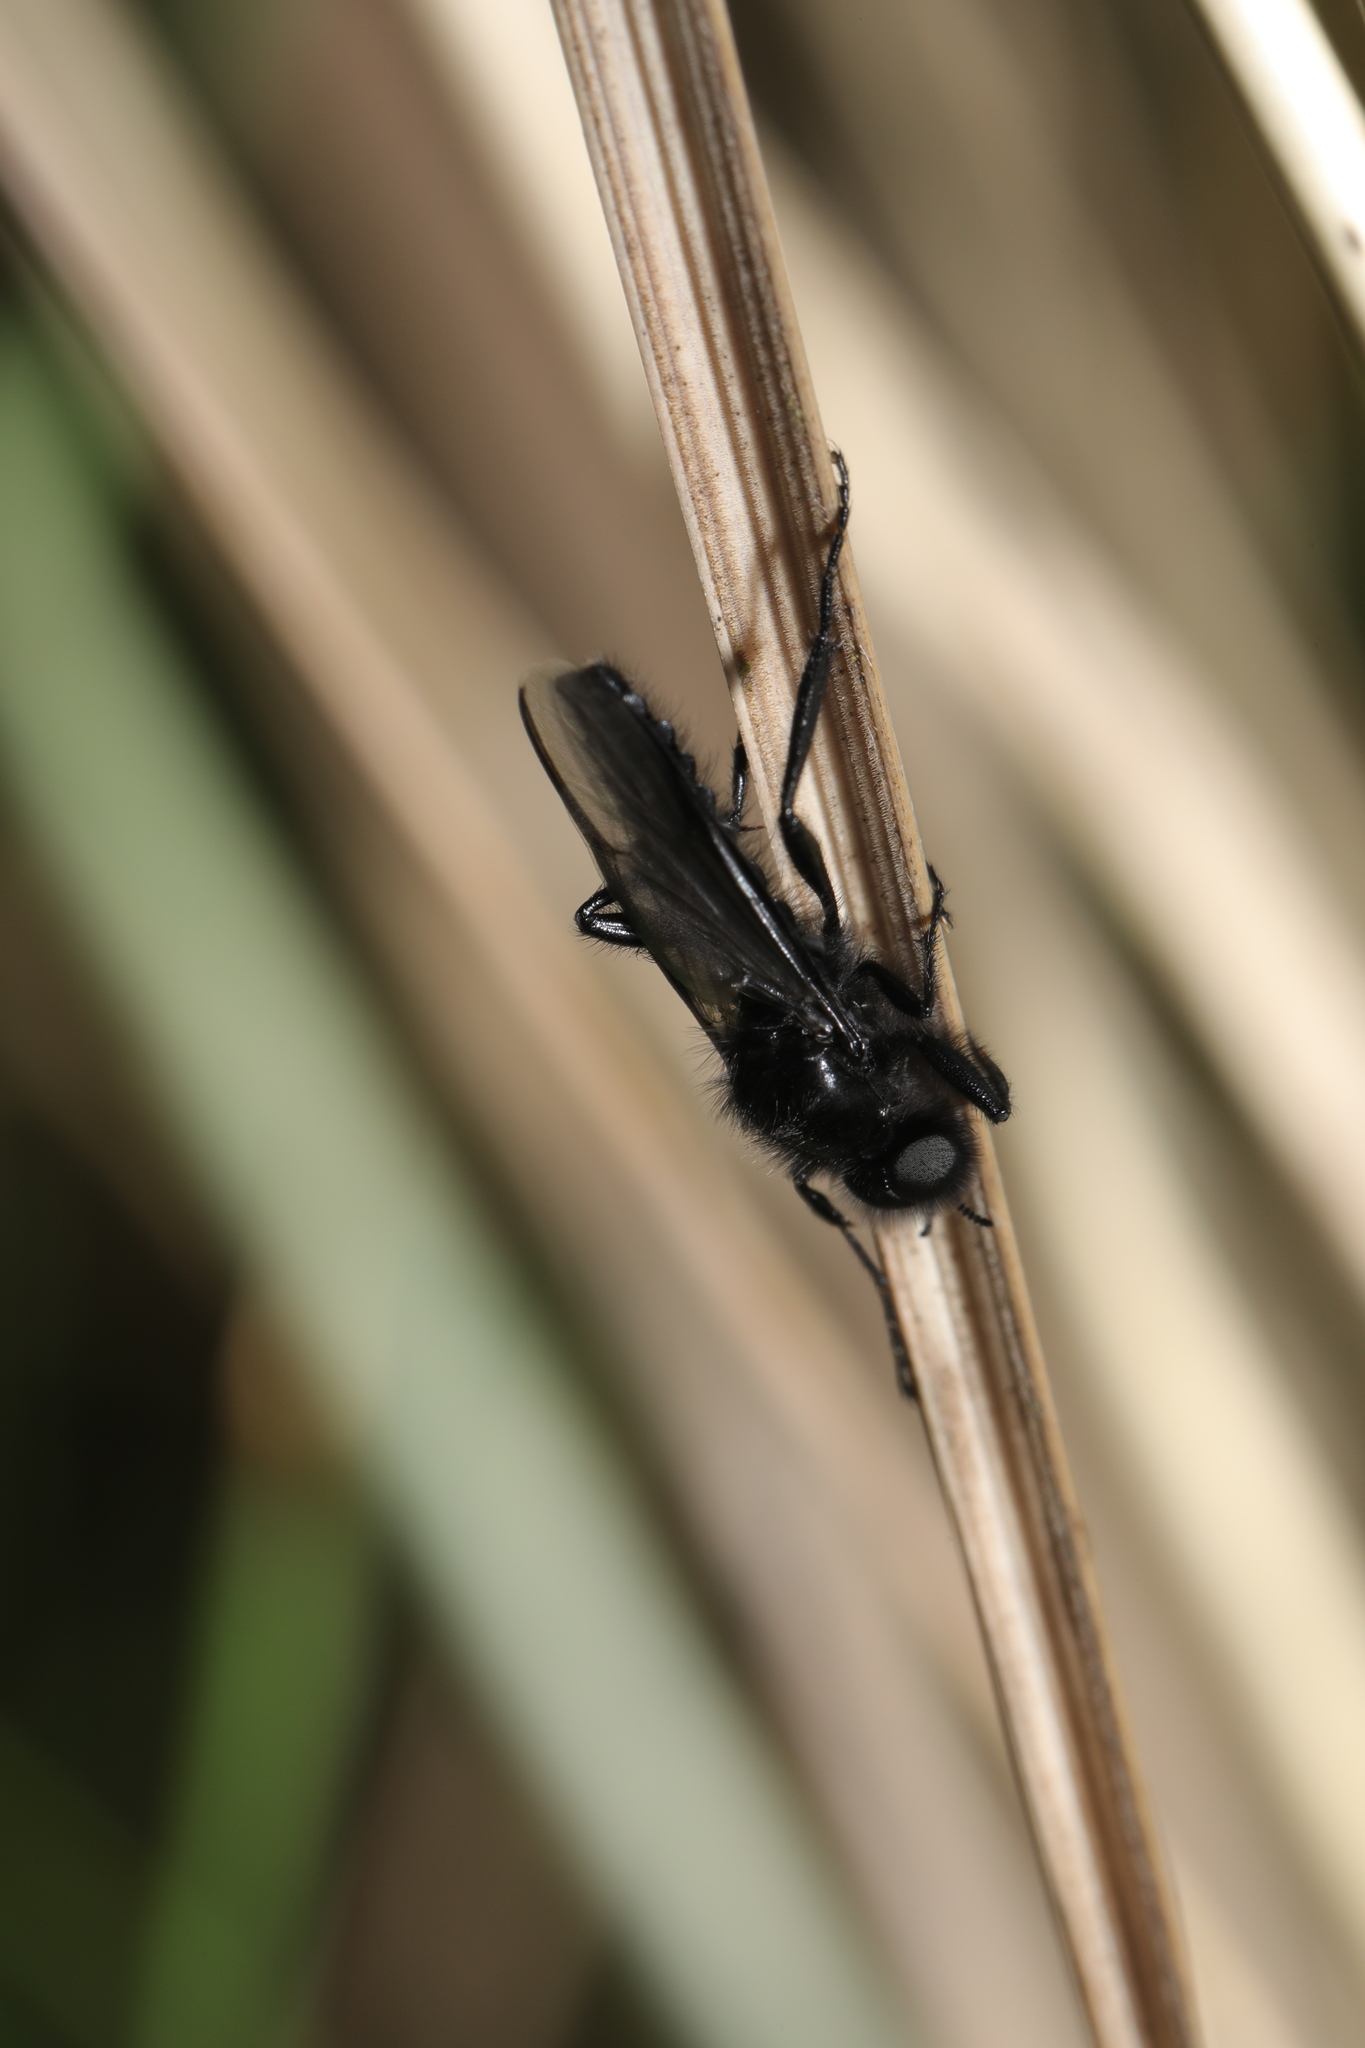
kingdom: Animalia
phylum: Arthropoda
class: Insecta
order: Diptera
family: Bibionidae
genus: Bibio
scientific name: Bibio marci
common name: St marks fly
